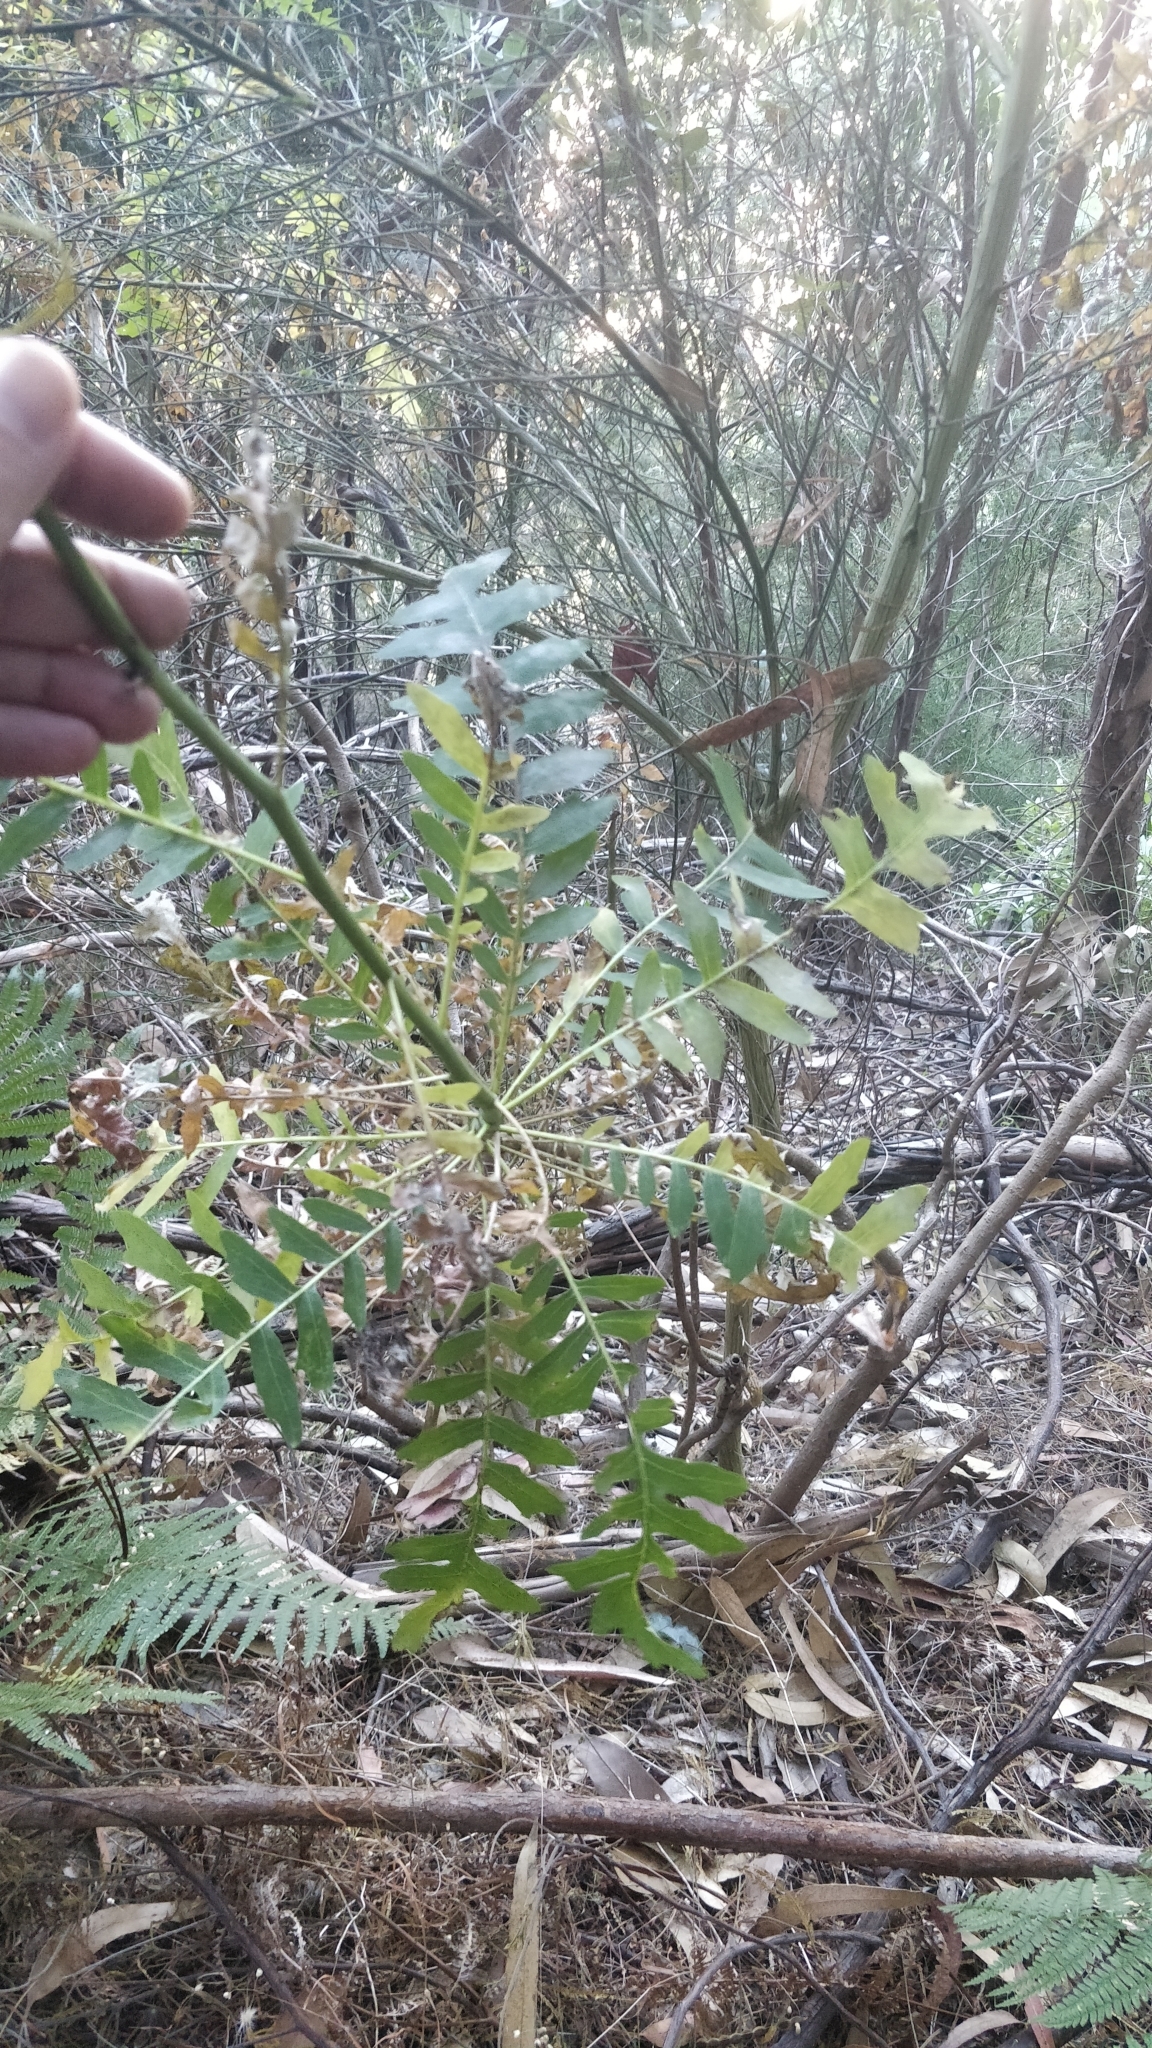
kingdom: Plantae
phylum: Tracheophyta
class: Magnoliopsida
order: Asterales
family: Asteraceae
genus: Sonchus
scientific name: Sonchus pinnatus
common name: Wing-leaved sow-thistle
